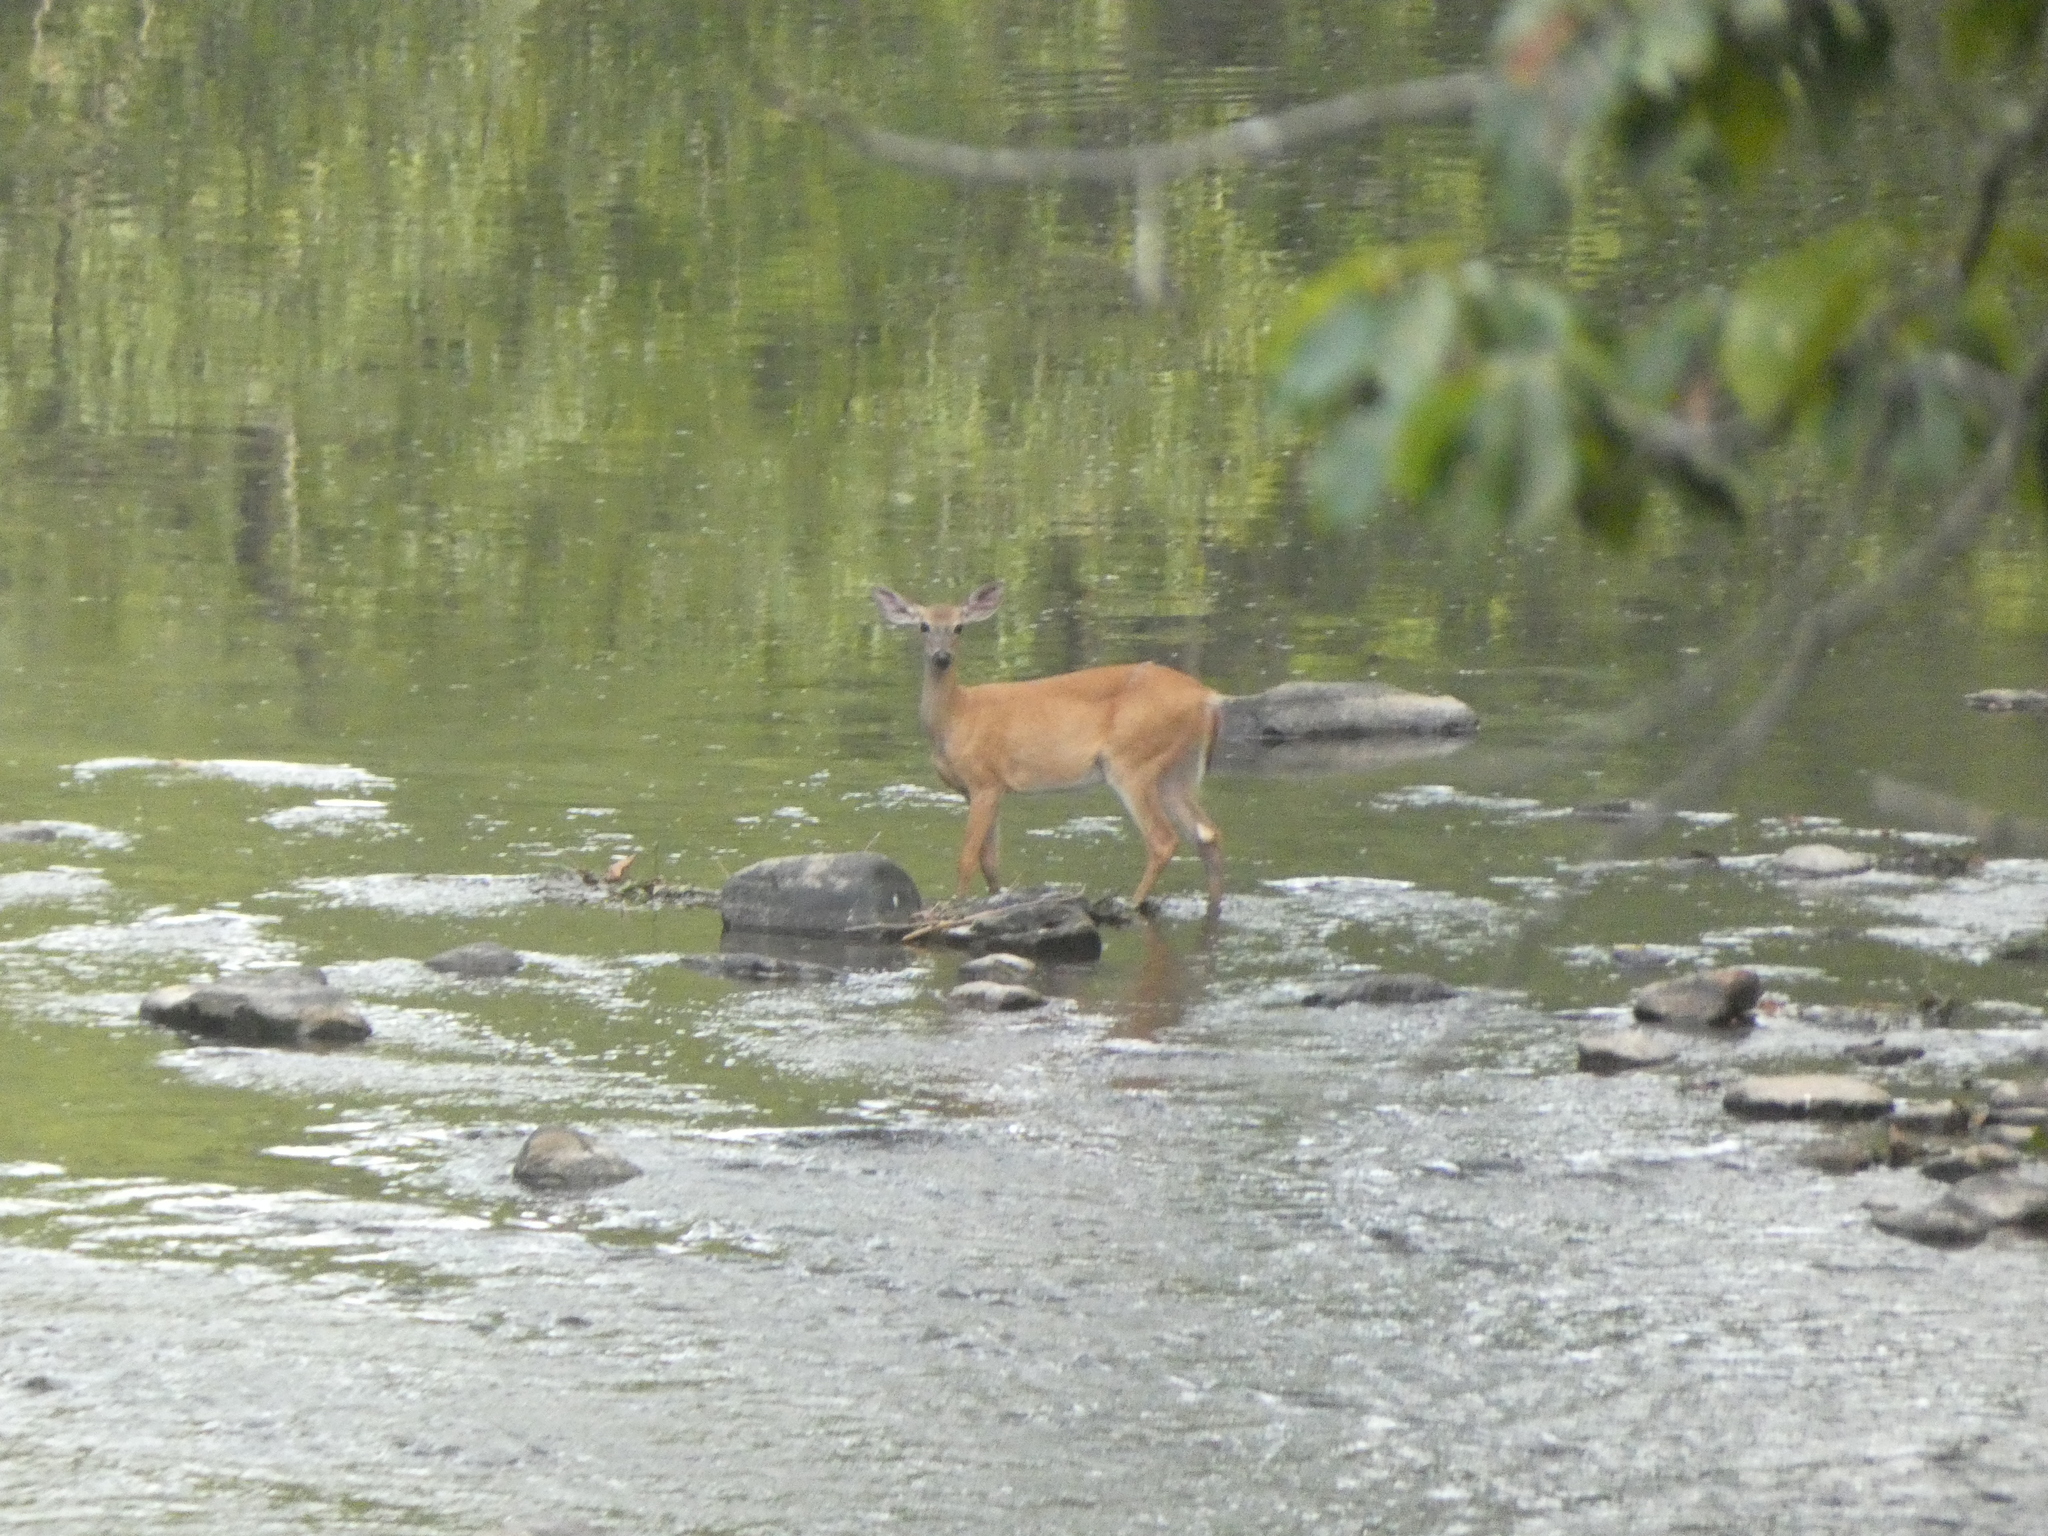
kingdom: Animalia
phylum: Chordata
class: Mammalia
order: Artiodactyla
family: Cervidae
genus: Odocoileus
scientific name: Odocoileus virginianus
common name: White-tailed deer
